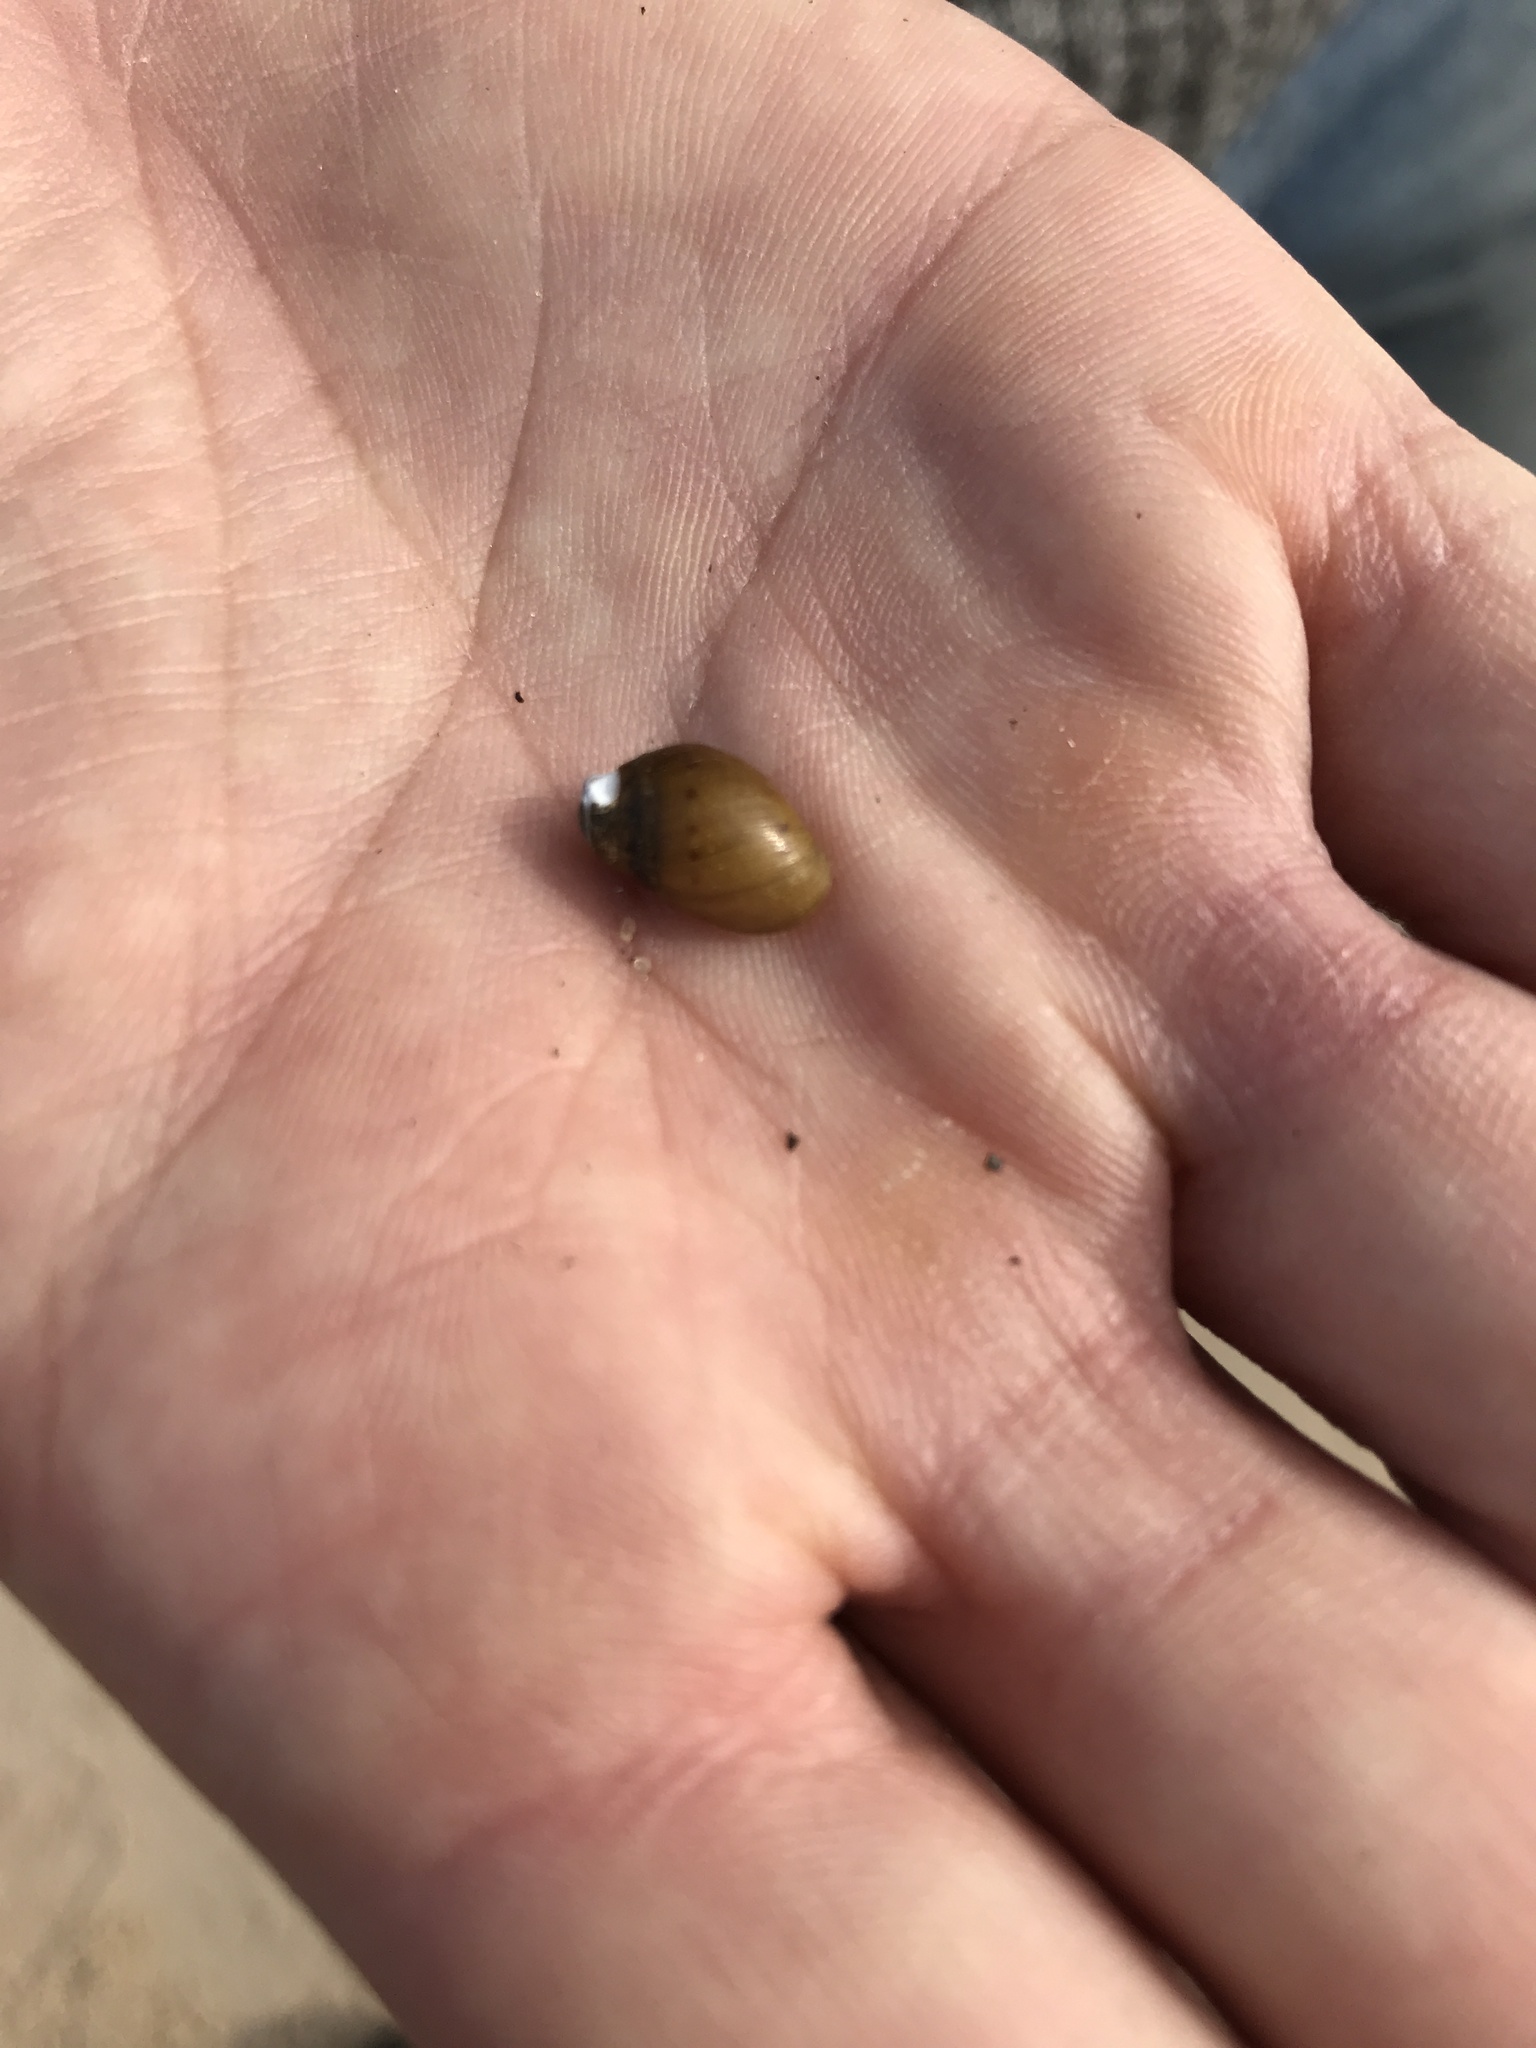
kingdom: Animalia
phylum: Mollusca
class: Gastropoda
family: Chilinidae
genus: Chilina
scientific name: Chilina rushii
